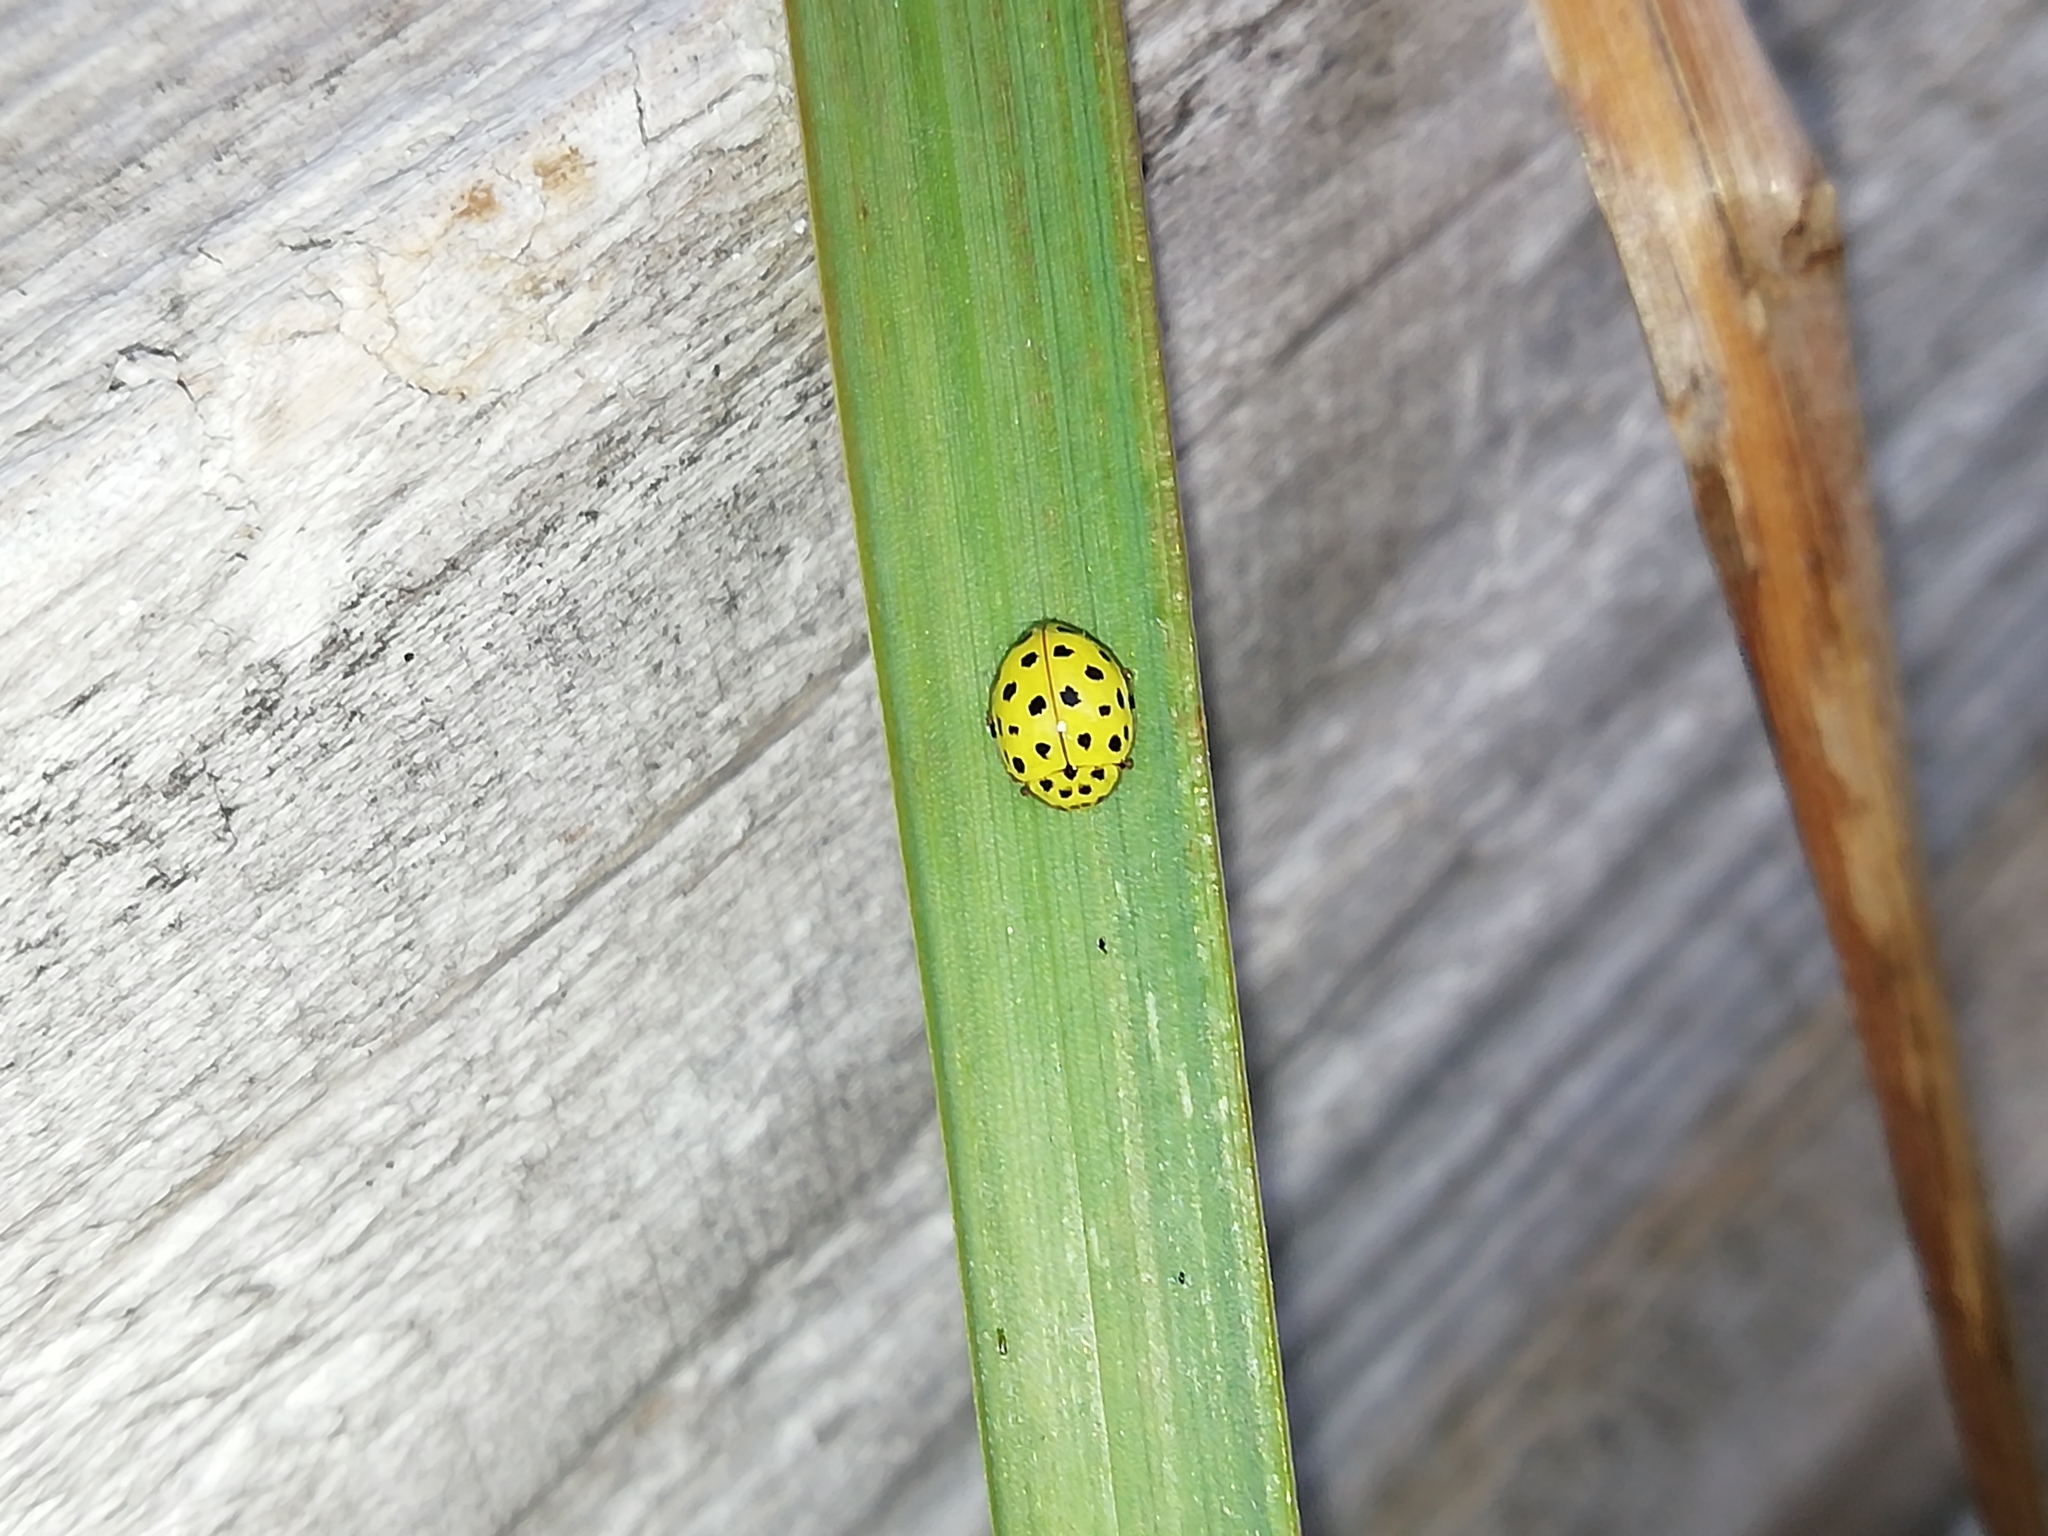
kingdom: Animalia
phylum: Arthropoda
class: Insecta
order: Coleoptera
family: Coccinellidae
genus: Psyllobora
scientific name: Psyllobora vigintiduopunctata
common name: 22-spot ladybird
